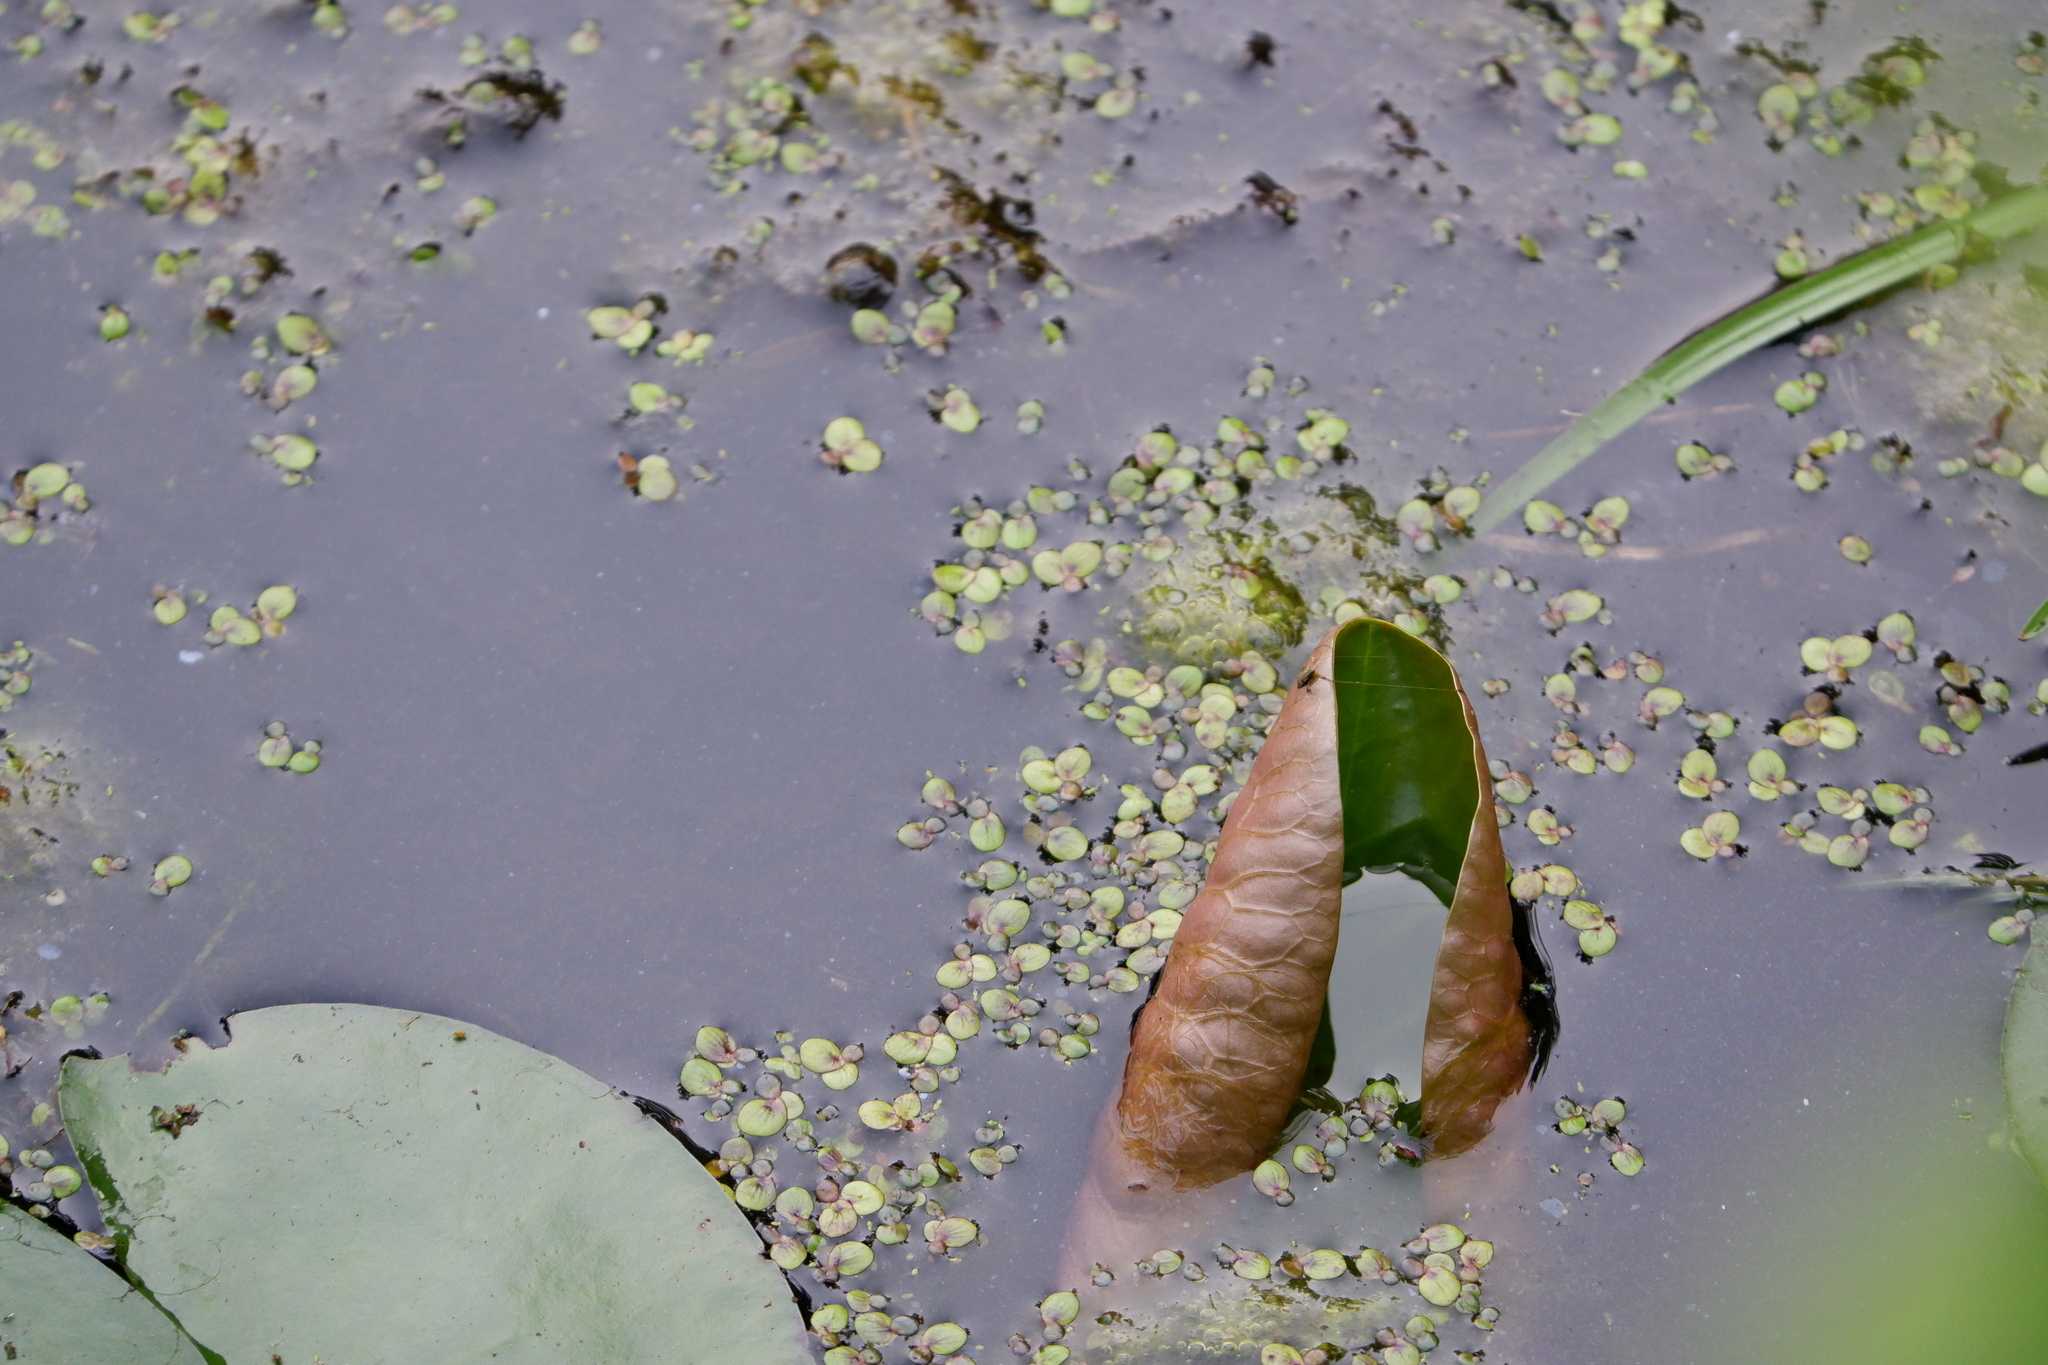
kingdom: Plantae
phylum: Tracheophyta
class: Liliopsida
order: Alismatales
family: Araceae
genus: Spirodela
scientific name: Spirodela polyrhiza
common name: Great duckweed
